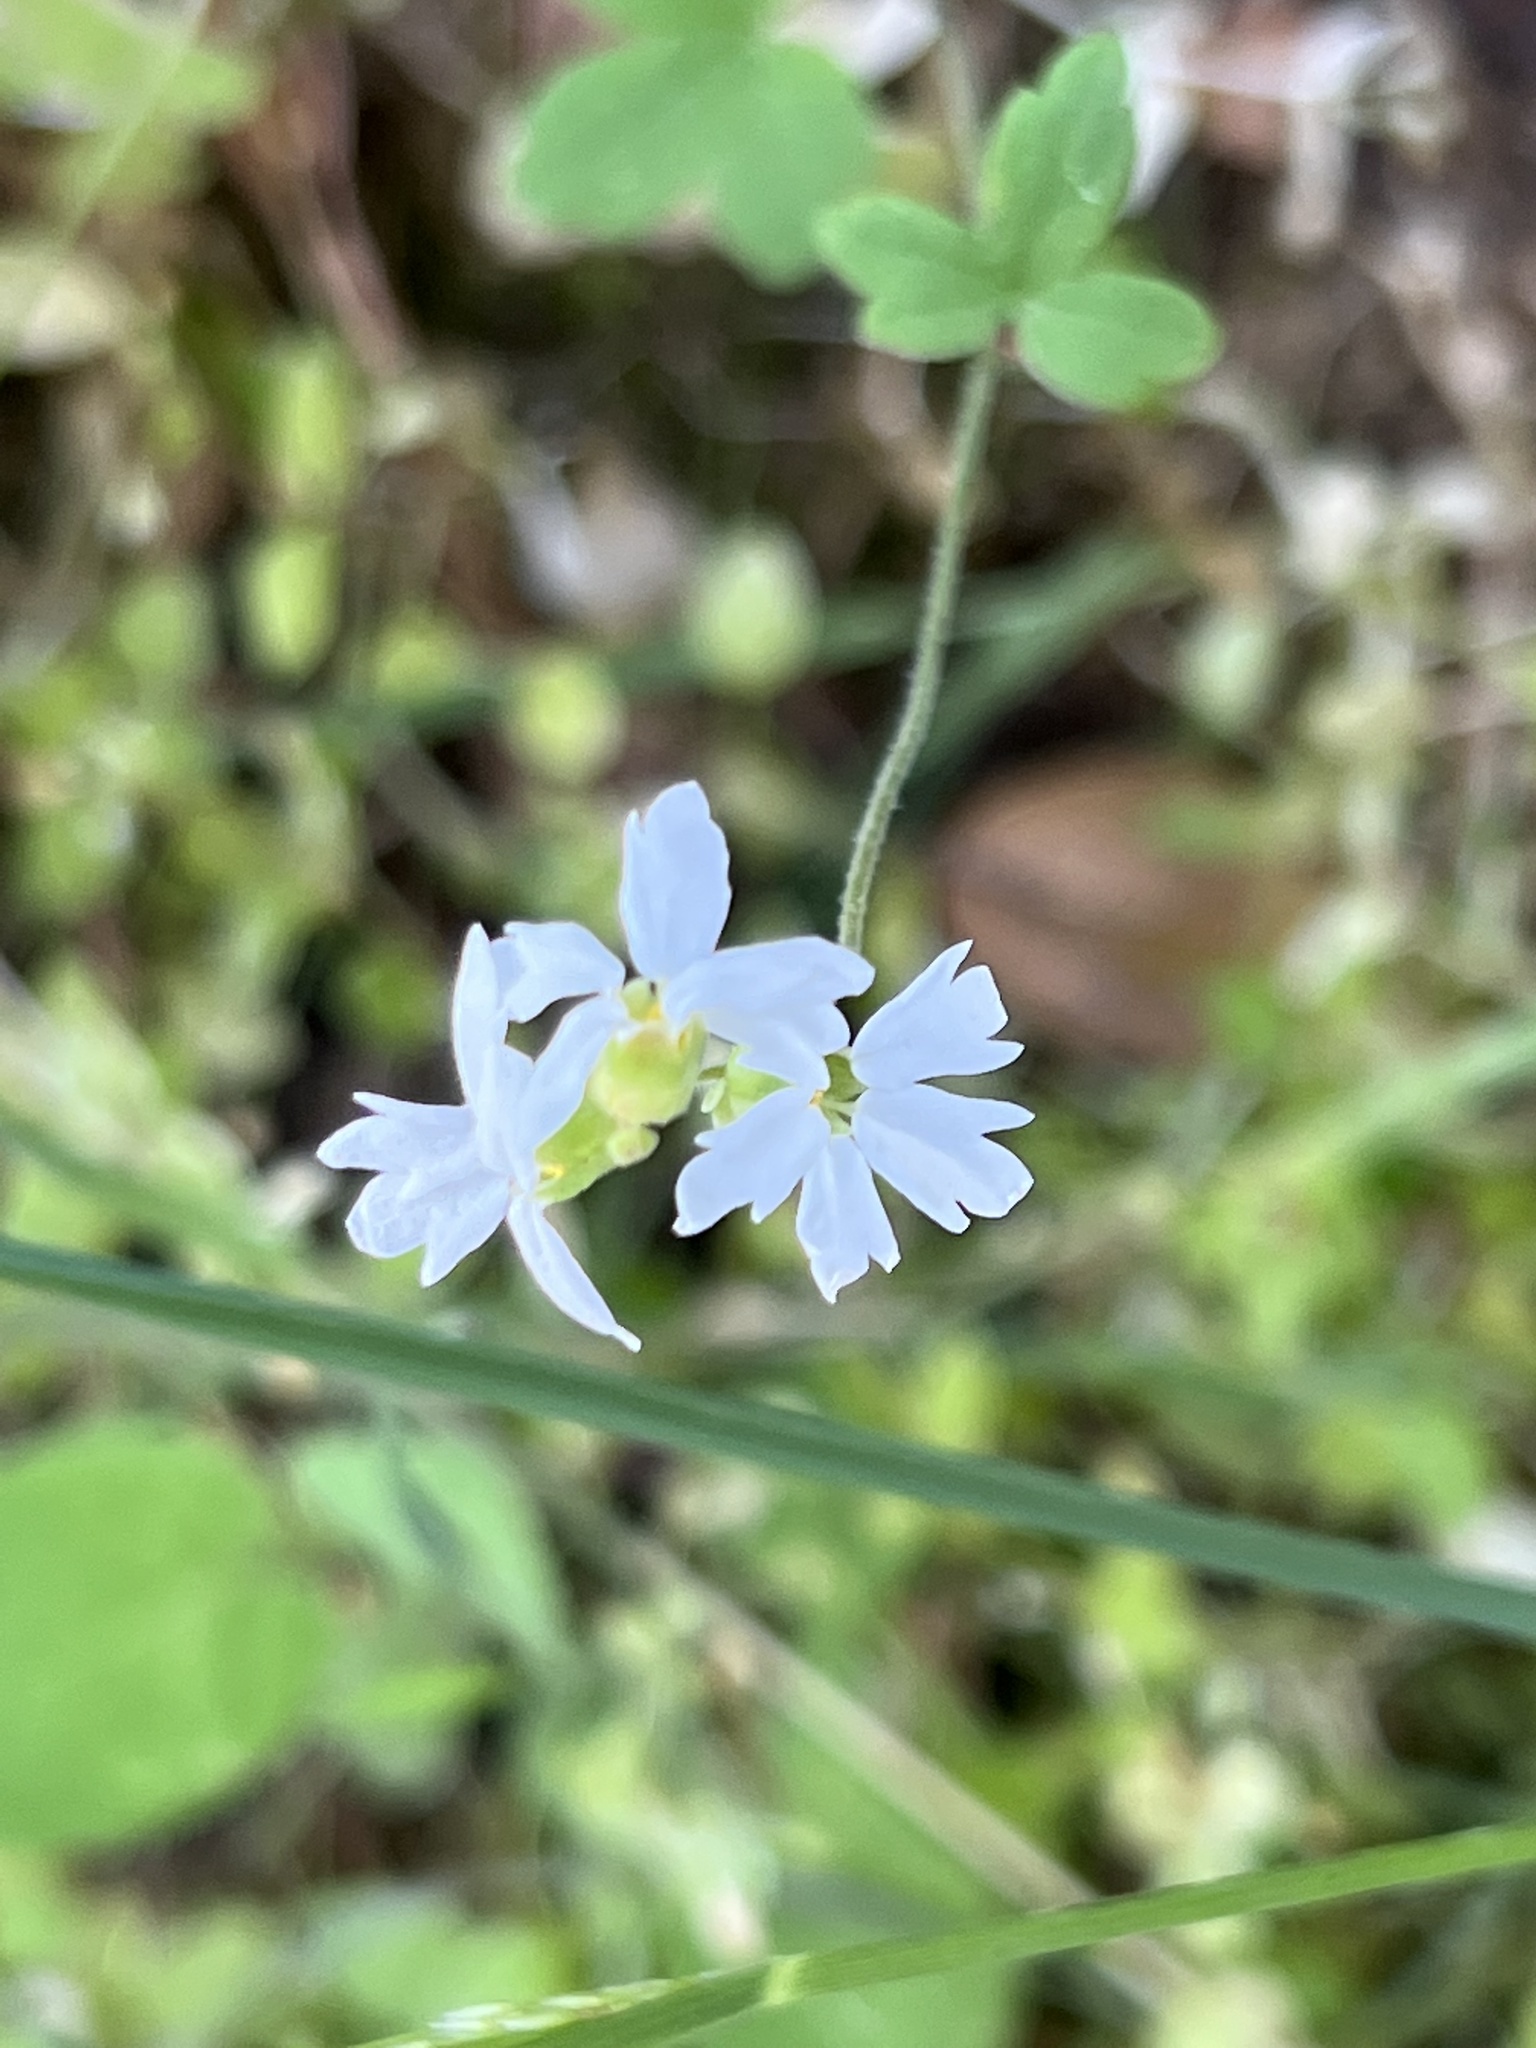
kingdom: Plantae
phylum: Tracheophyta
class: Magnoliopsida
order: Saxifragales
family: Saxifragaceae
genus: Lithophragma
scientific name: Lithophragma heterophyllum
